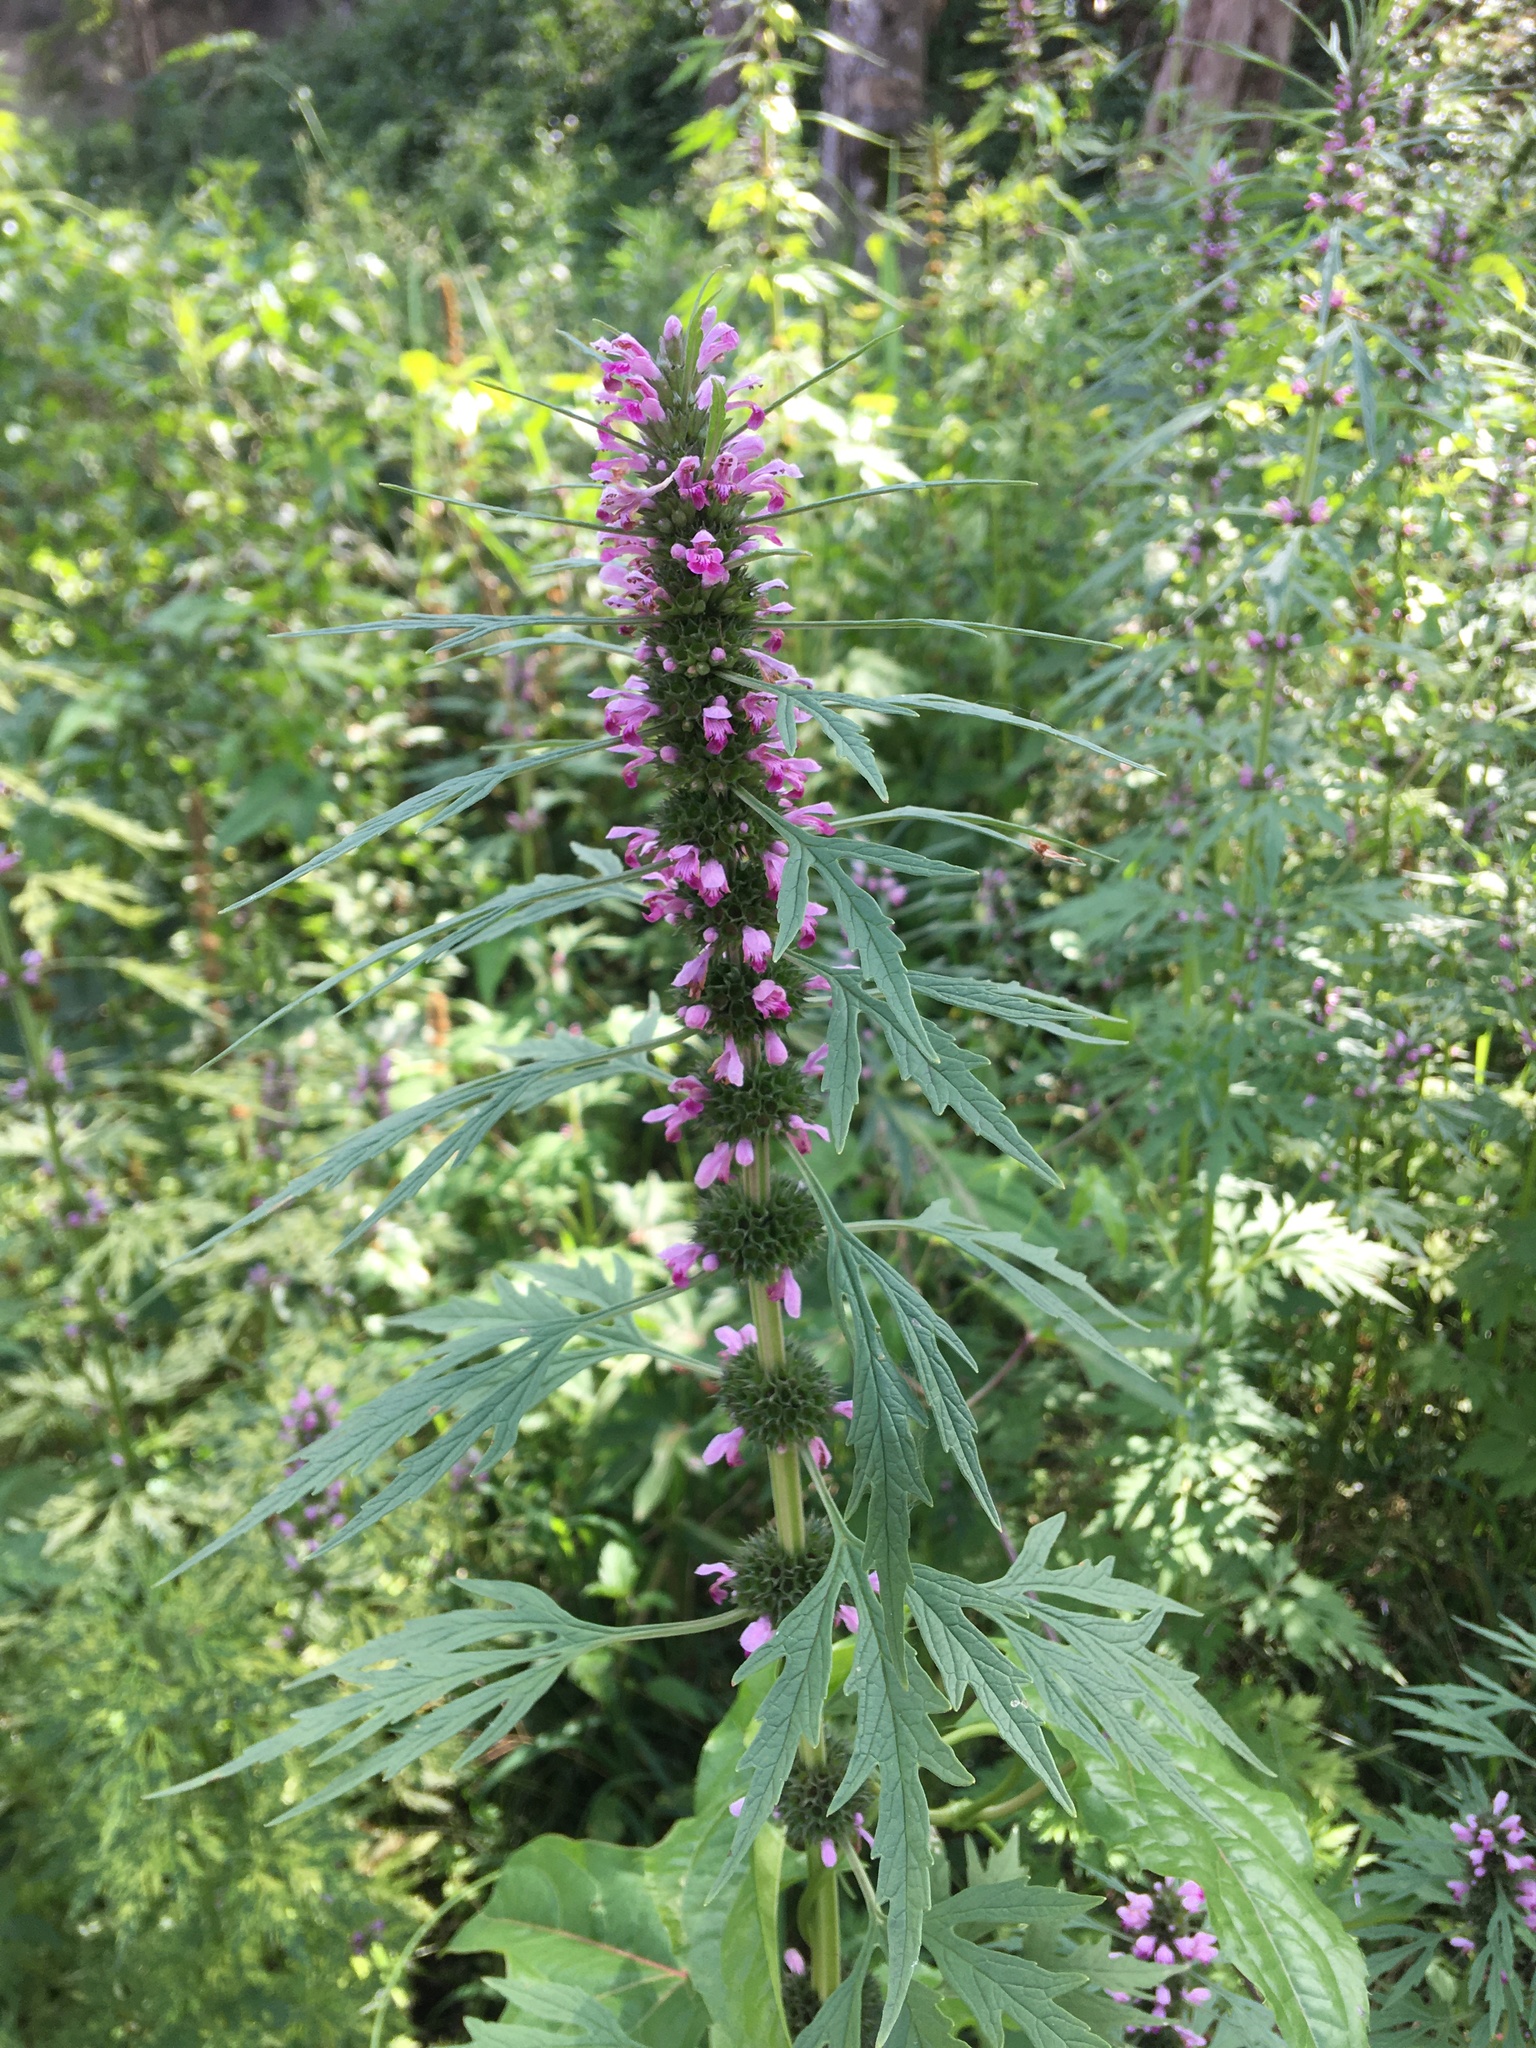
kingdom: Plantae
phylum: Tracheophyta
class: Magnoliopsida
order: Lamiales
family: Lamiaceae
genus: Leonurus
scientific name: Leonurus japonicus
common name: Honeyweed
